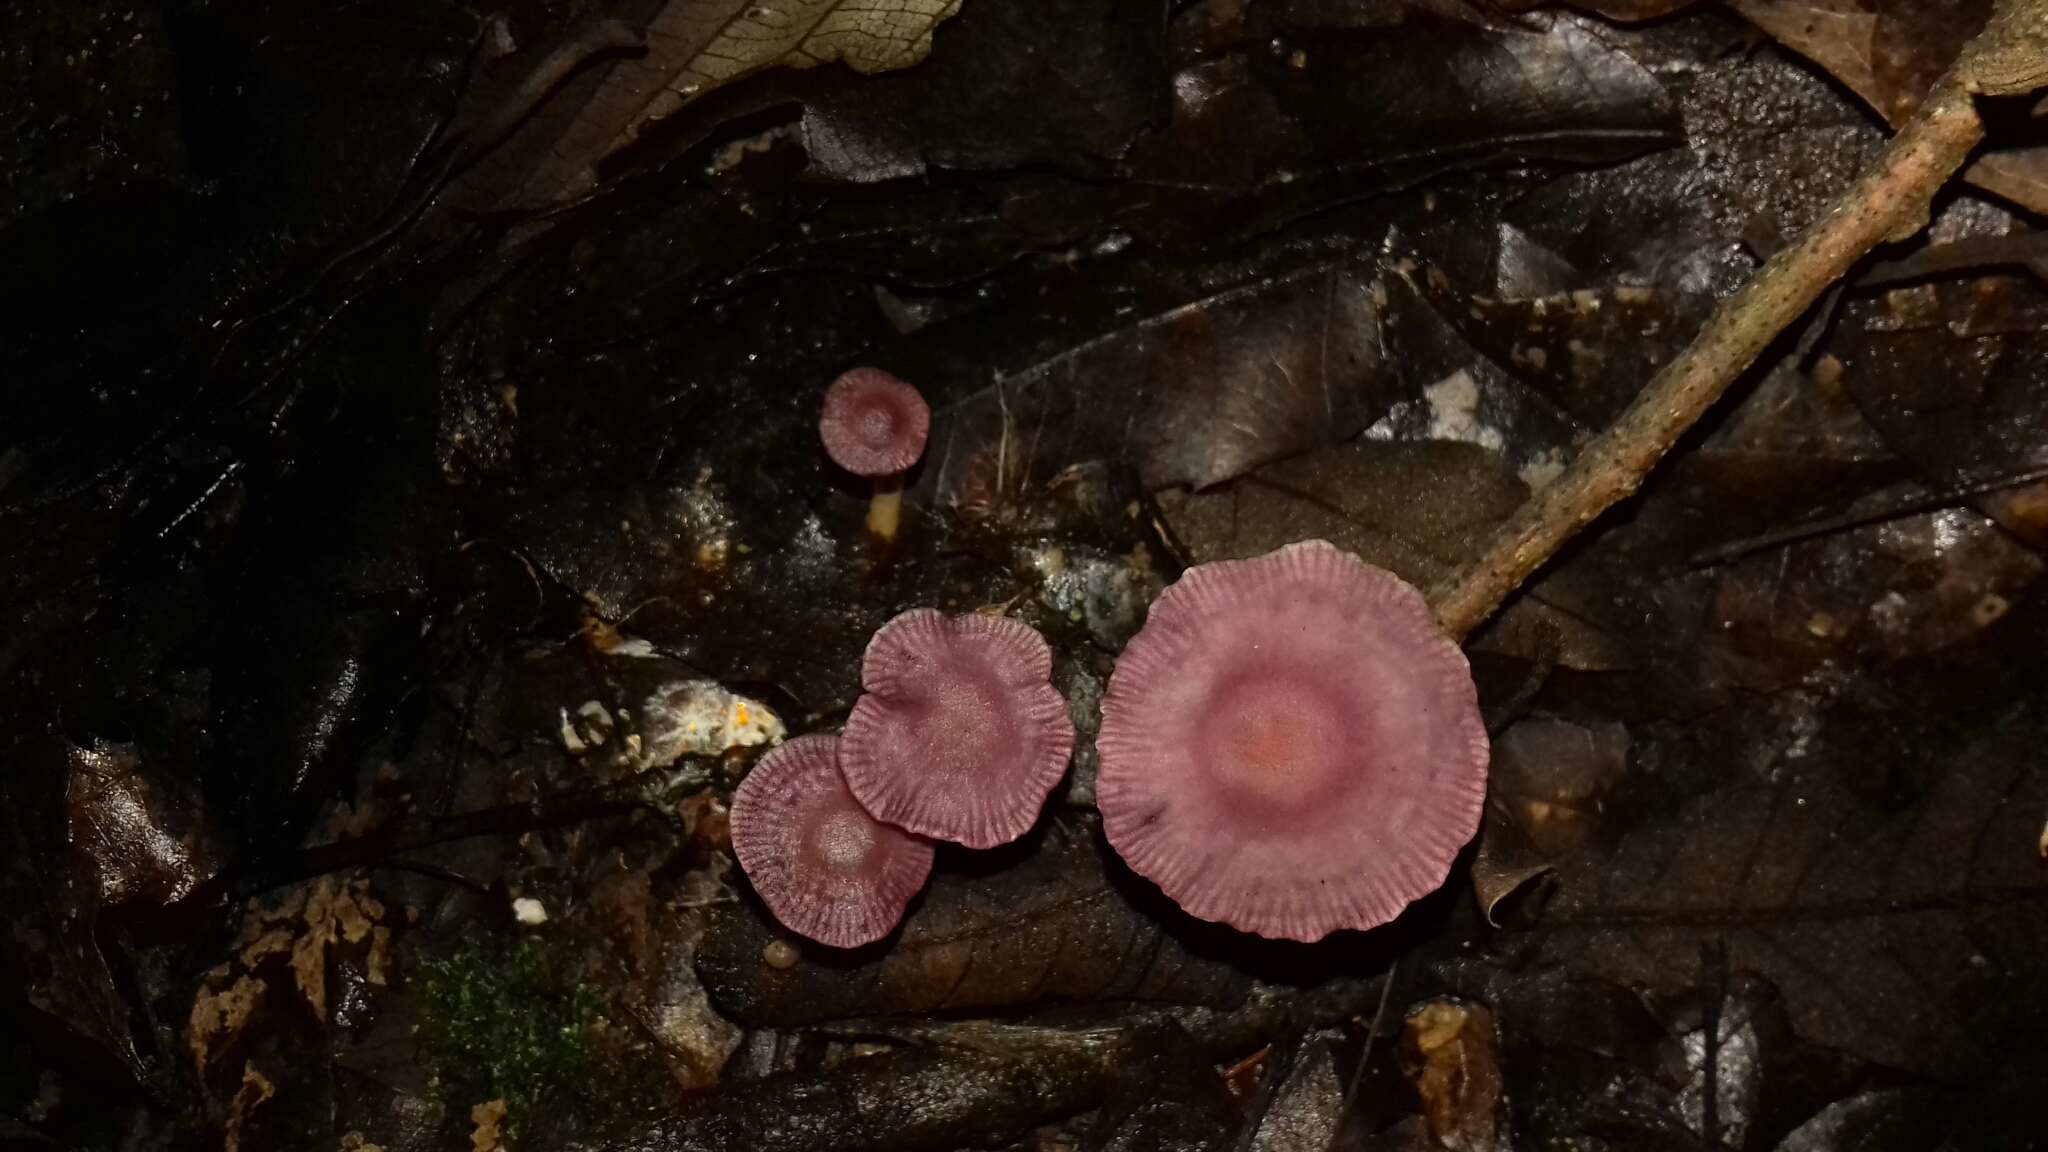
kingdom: Fungi
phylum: Basidiomycota
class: Agaricomycetes
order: Agaricales
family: Omphalotaceae
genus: Gymnopus
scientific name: Gymnopus iocephalus
